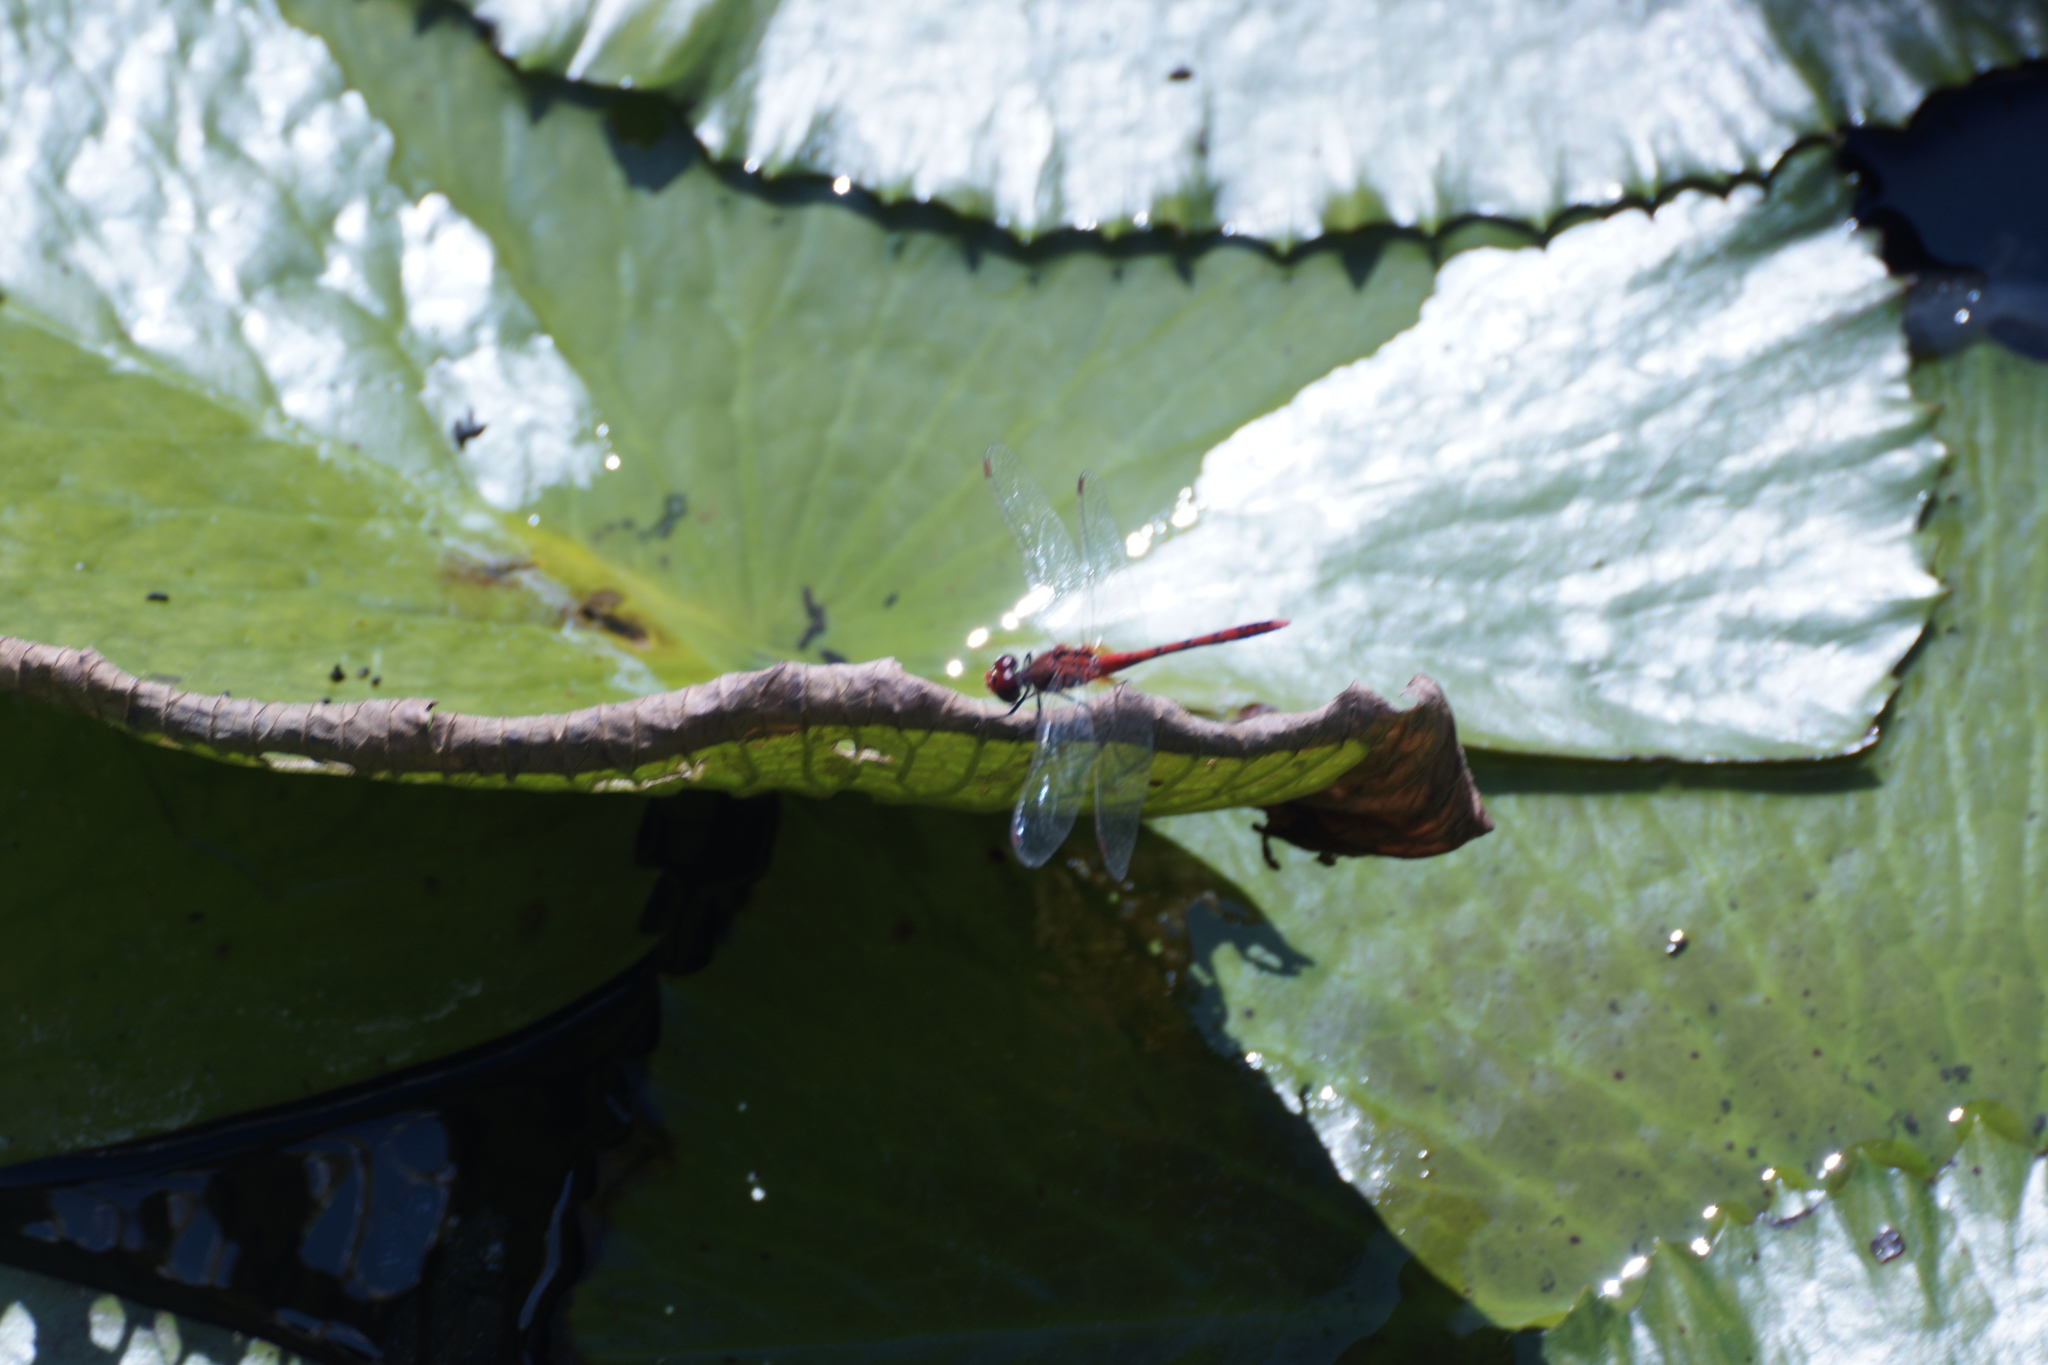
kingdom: Animalia
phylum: Arthropoda
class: Insecta
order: Odonata
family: Libellulidae
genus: Diplacodes
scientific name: Diplacodes bipunctata
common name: Red percher dragonfly
